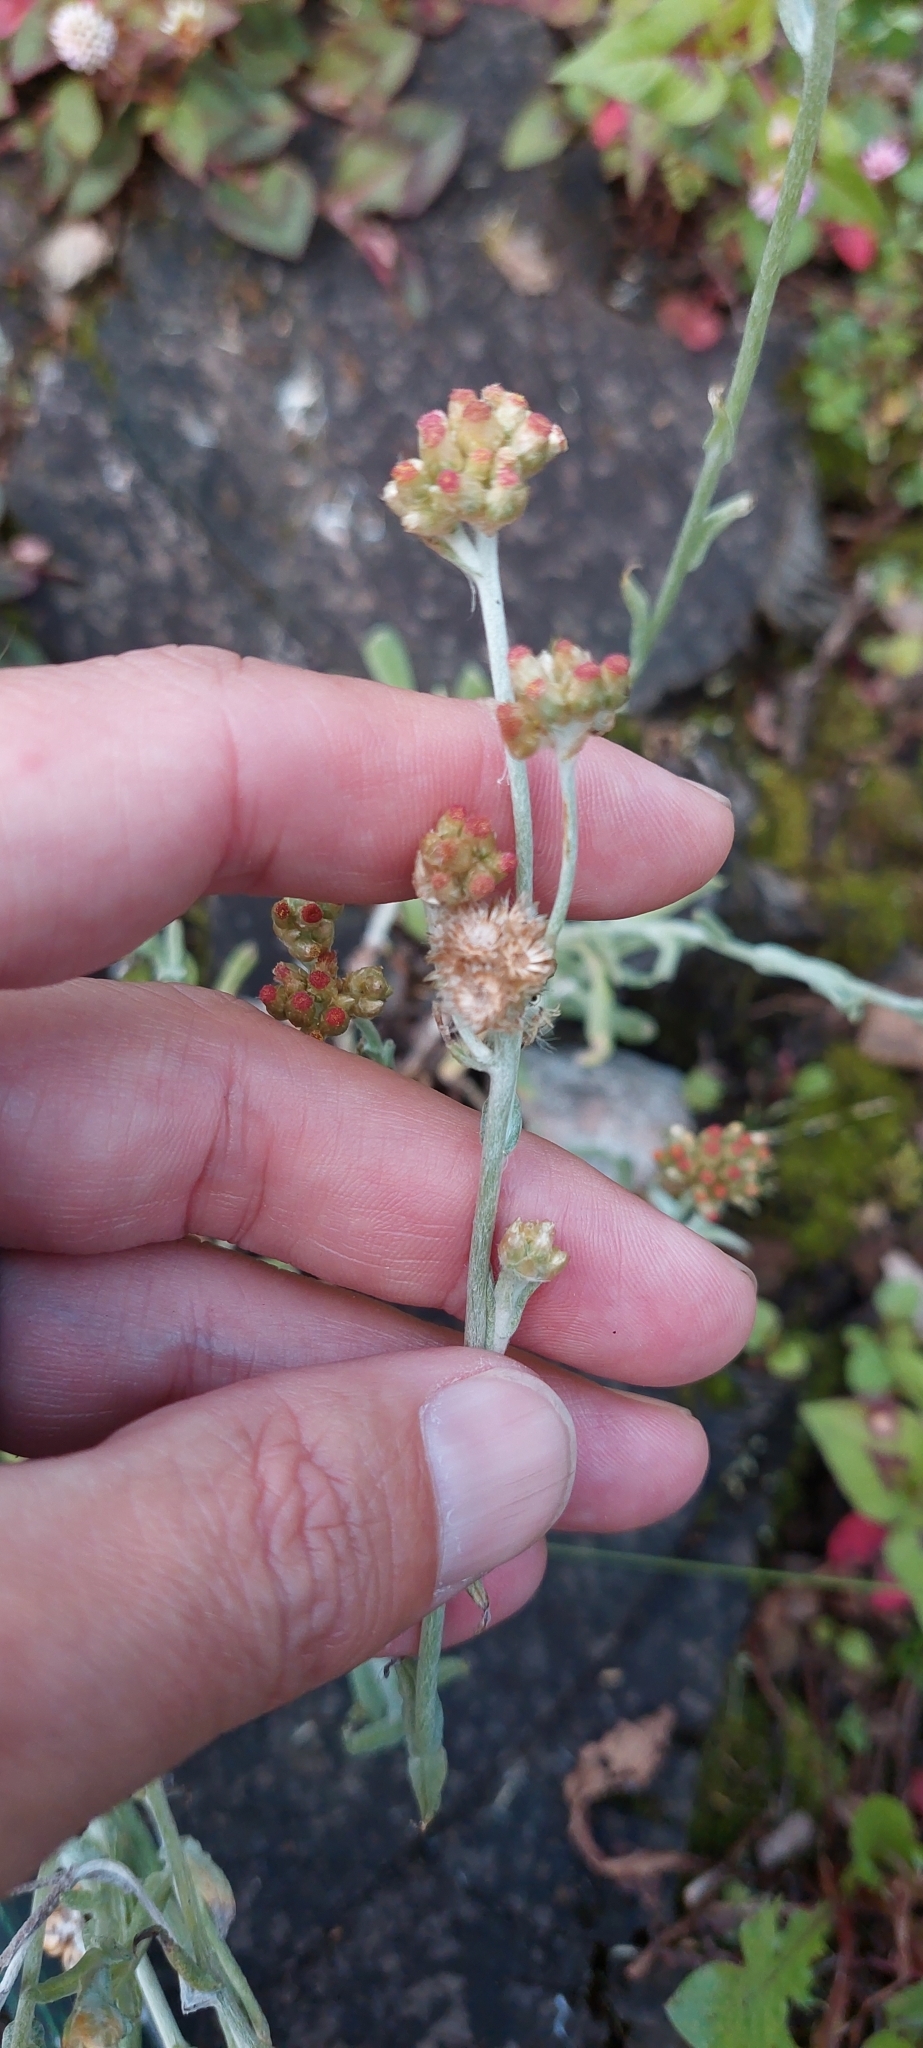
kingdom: Plantae
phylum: Tracheophyta
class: Magnoliopsida
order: Asterales
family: Asteraceae
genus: Helichrysum
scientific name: Helichrysum luteoalbum
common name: Daisy
